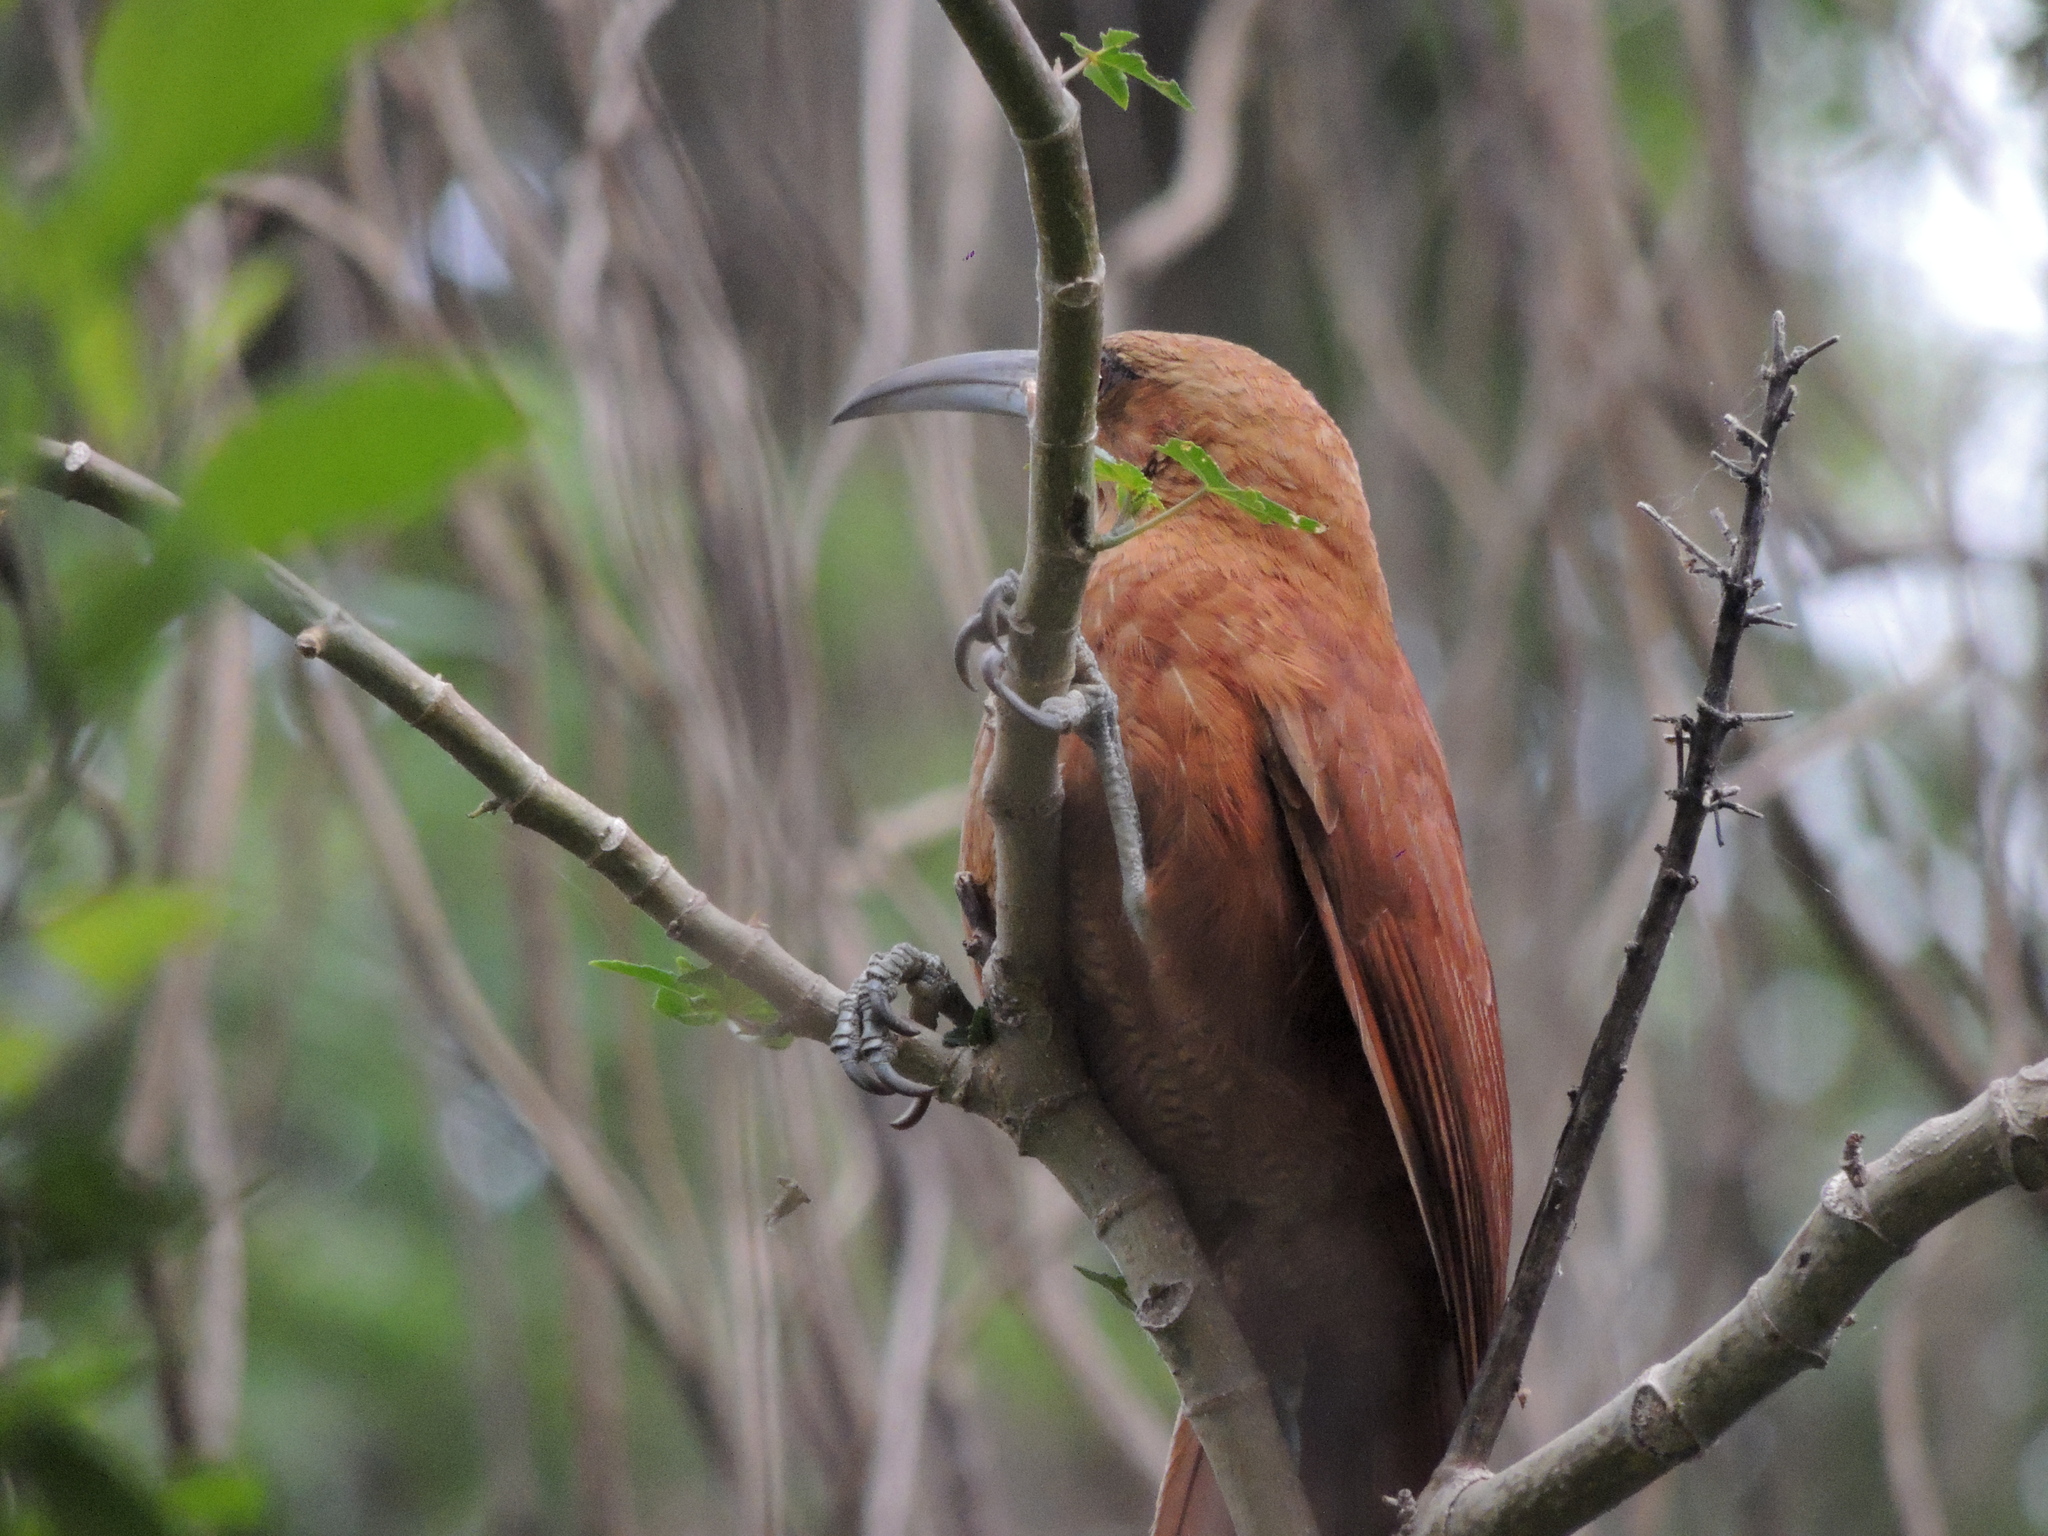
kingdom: Animalia
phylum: Chordata
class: Aves
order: Passeriformes
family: Furnariidae
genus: Xiphocolaptes
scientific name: Xiphocolaptes major
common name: Great rufous woodcreeper
